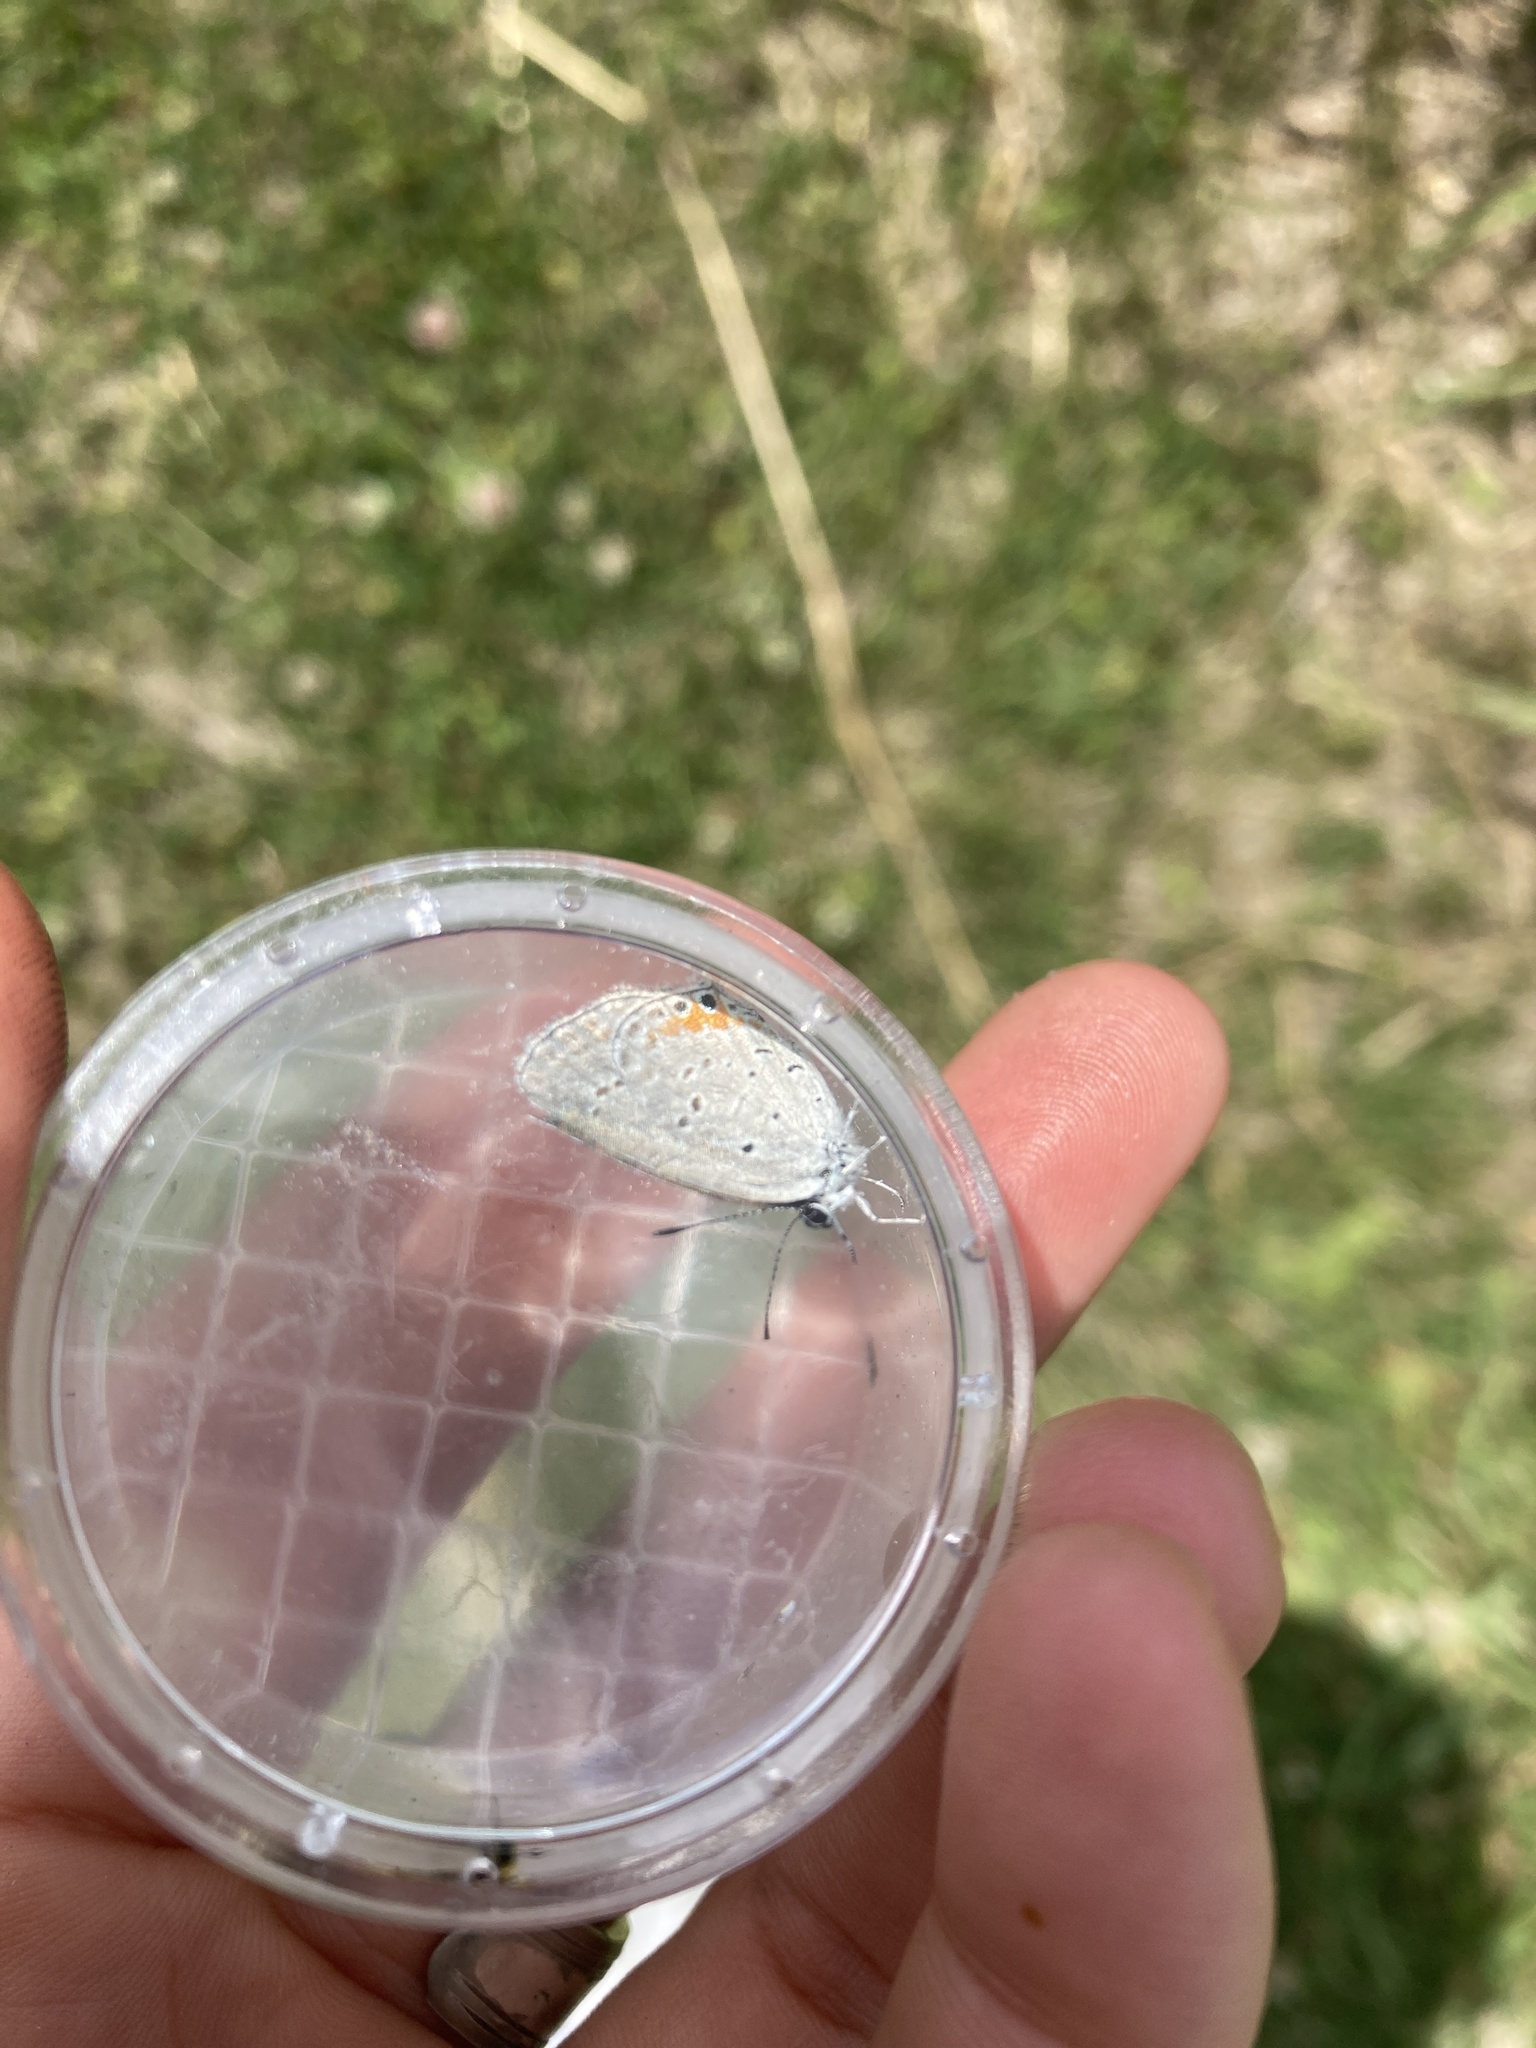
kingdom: Animalia
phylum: Arthropoda
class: Insecta
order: Lepidoptera
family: Lycaenidae
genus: Elkalyce
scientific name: Elkalyce comyntas
